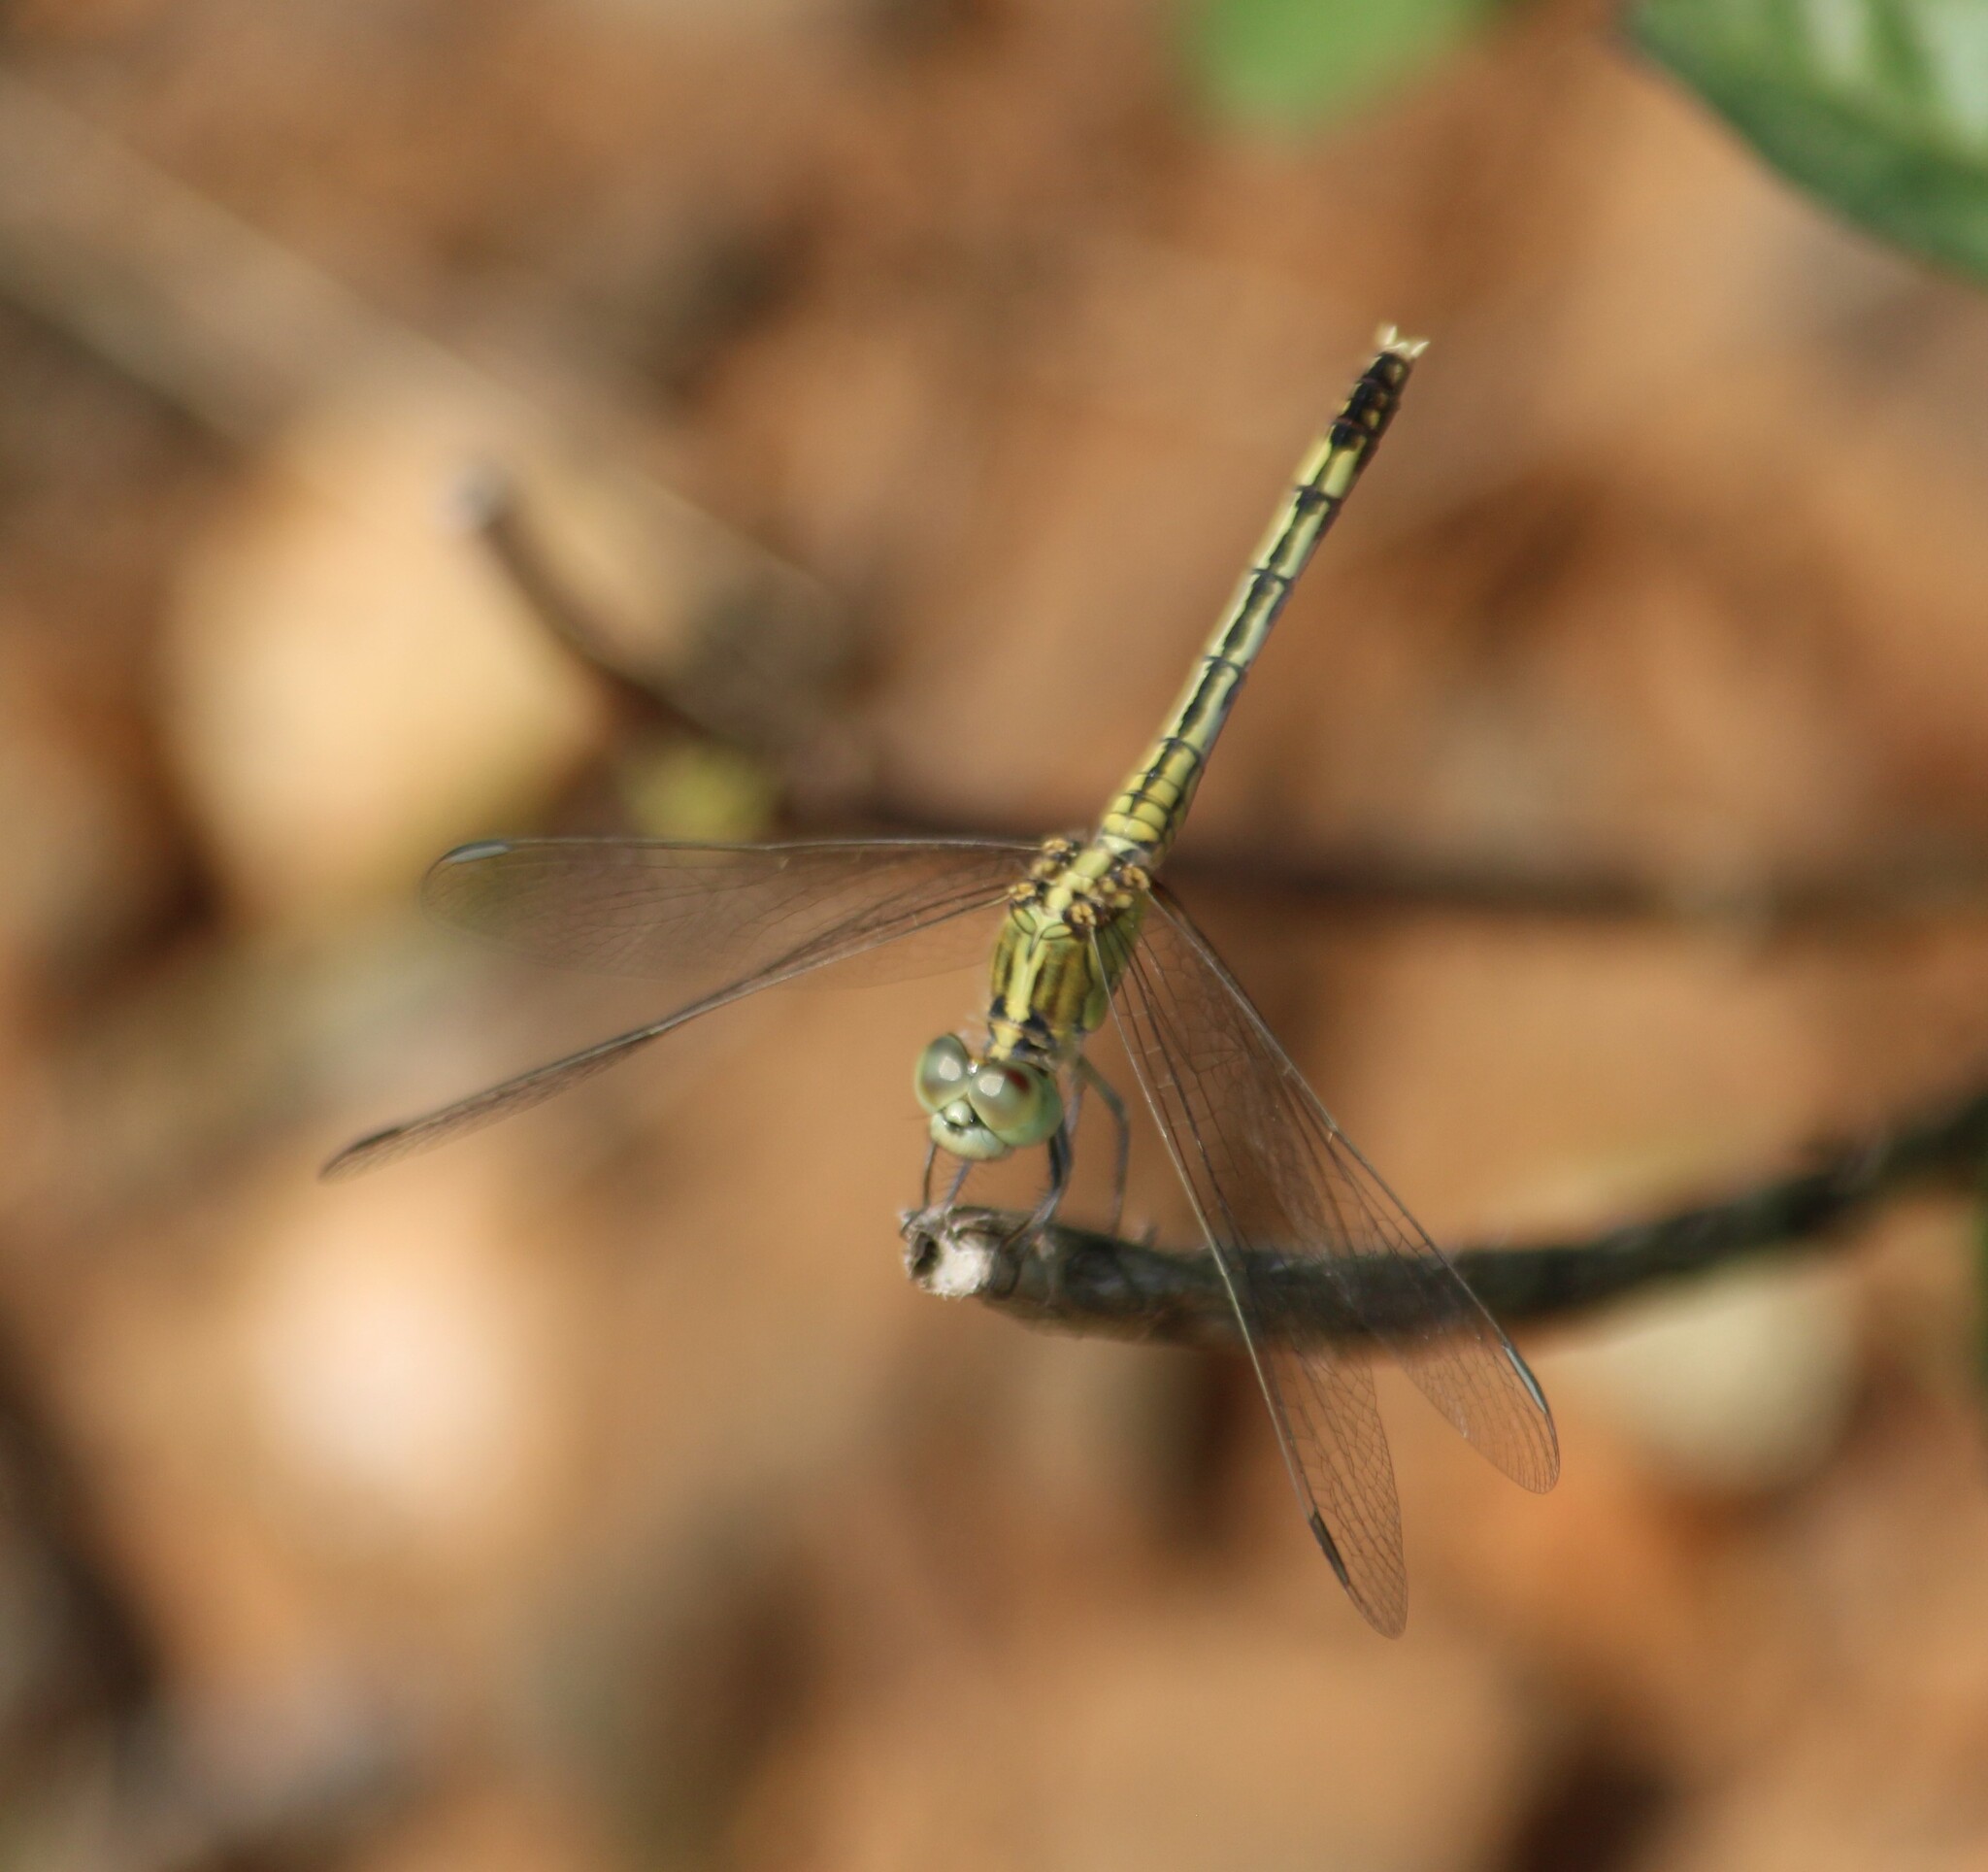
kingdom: Animalia
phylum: Arthropoda
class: Insecta
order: Odonata
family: Libellulidae
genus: Diplacodes
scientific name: Diplacodes trivialis
